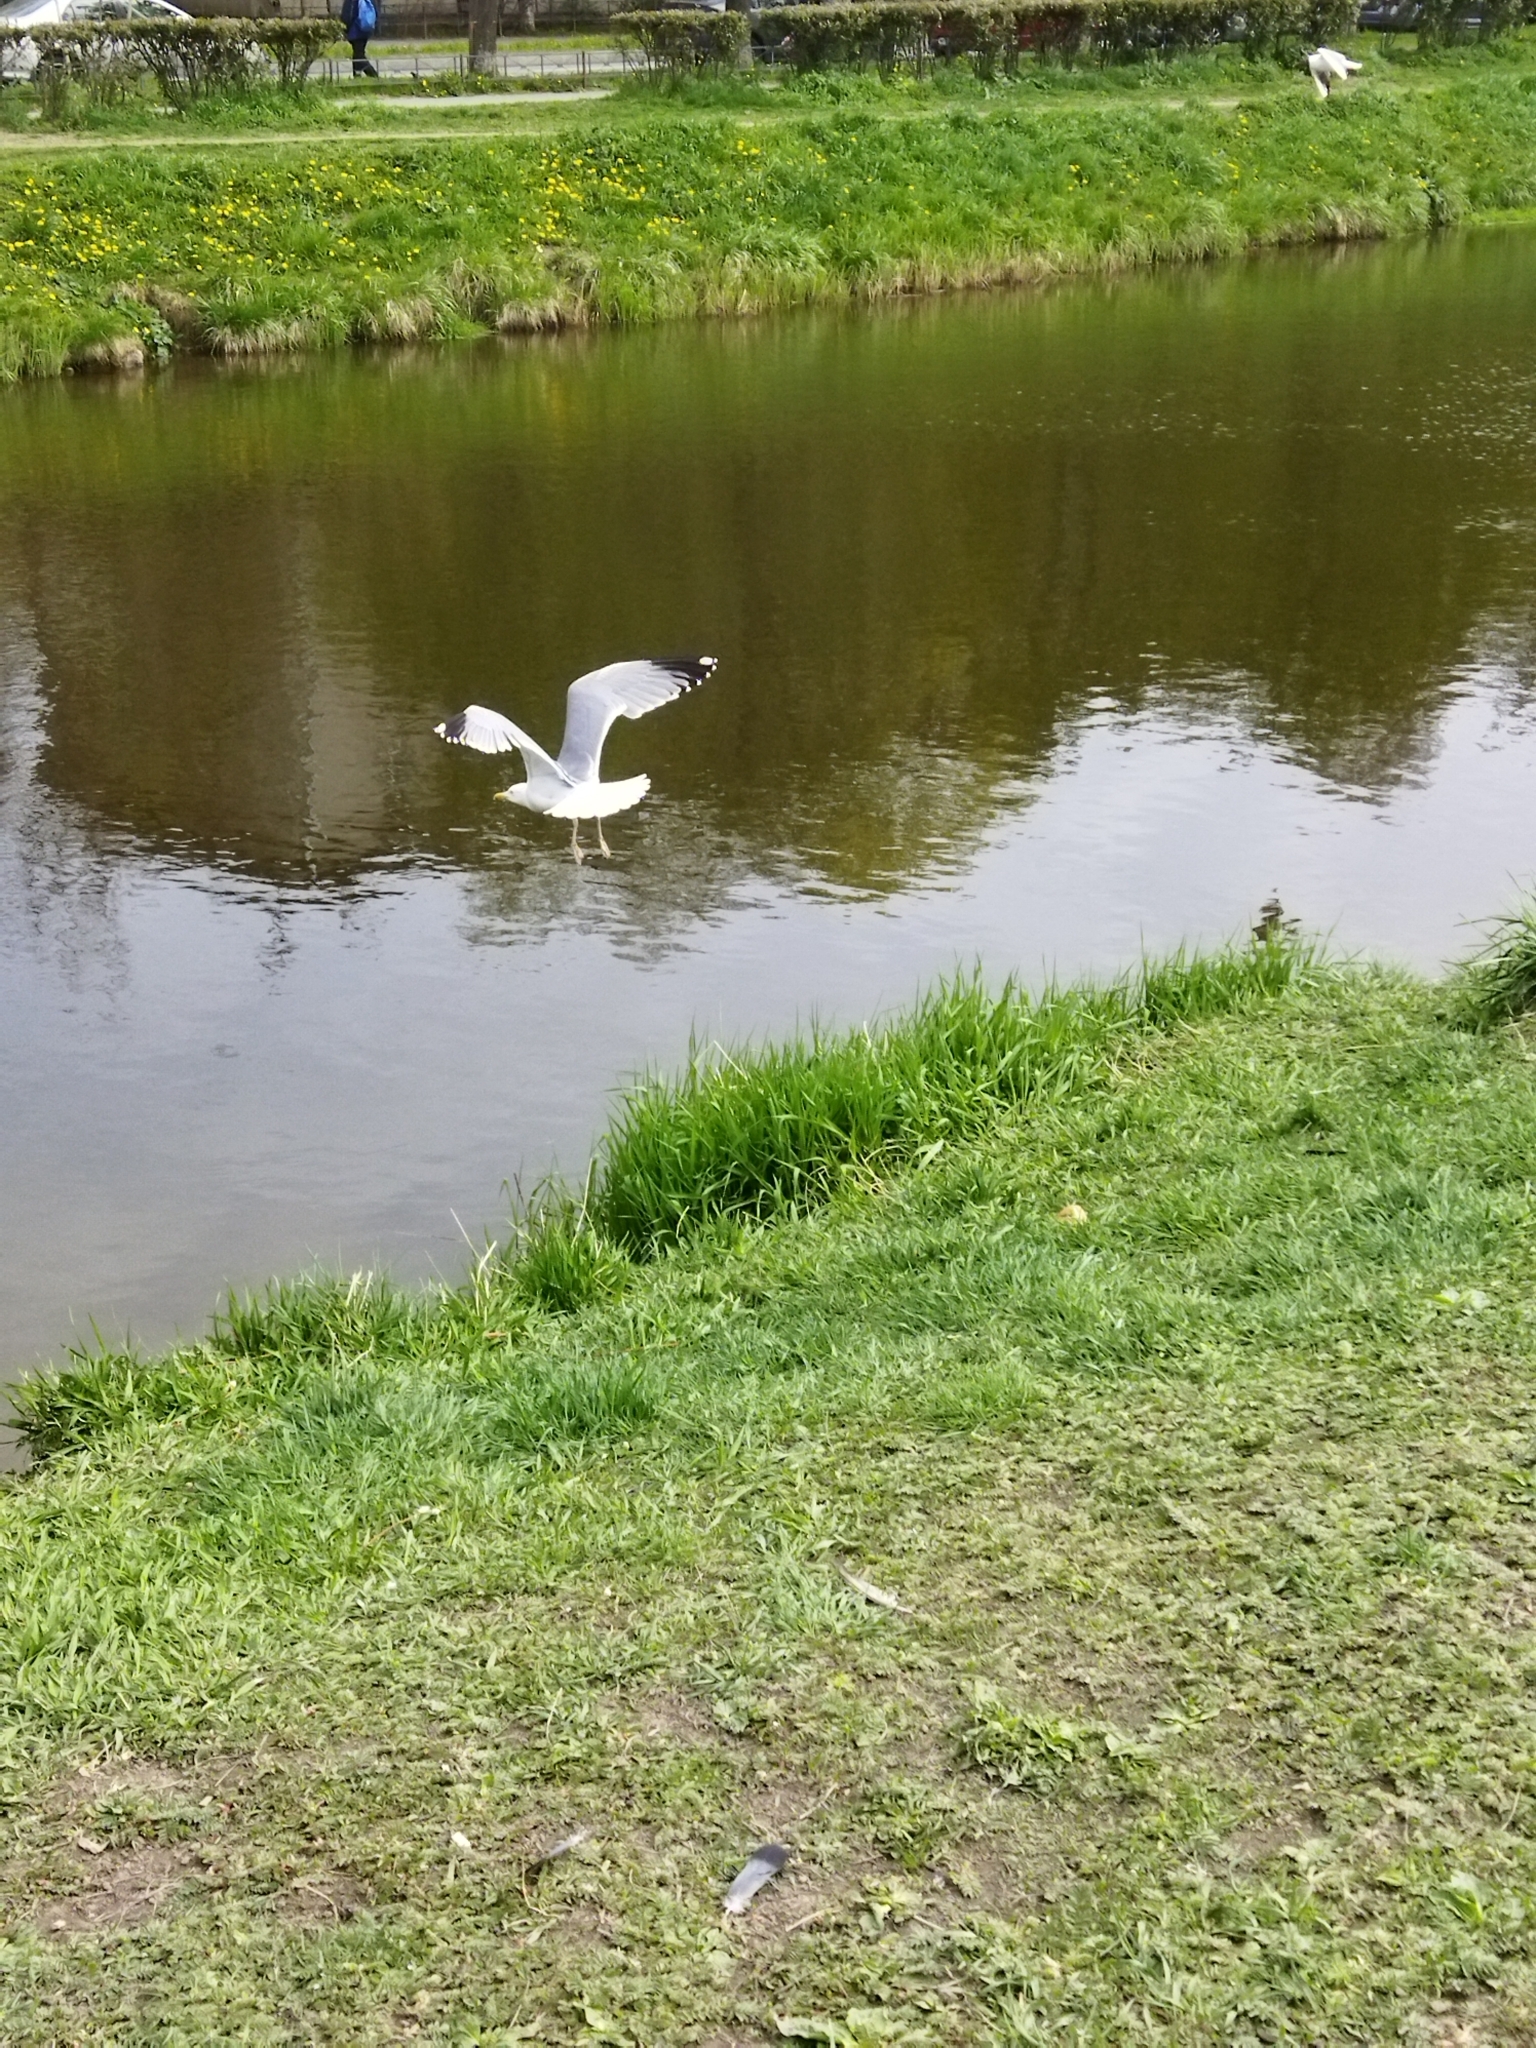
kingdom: Animalia
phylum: Chordata
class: Aves
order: Charadriiformes
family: Laridae
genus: Larus
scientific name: Larus argentatus
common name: Herring gull
